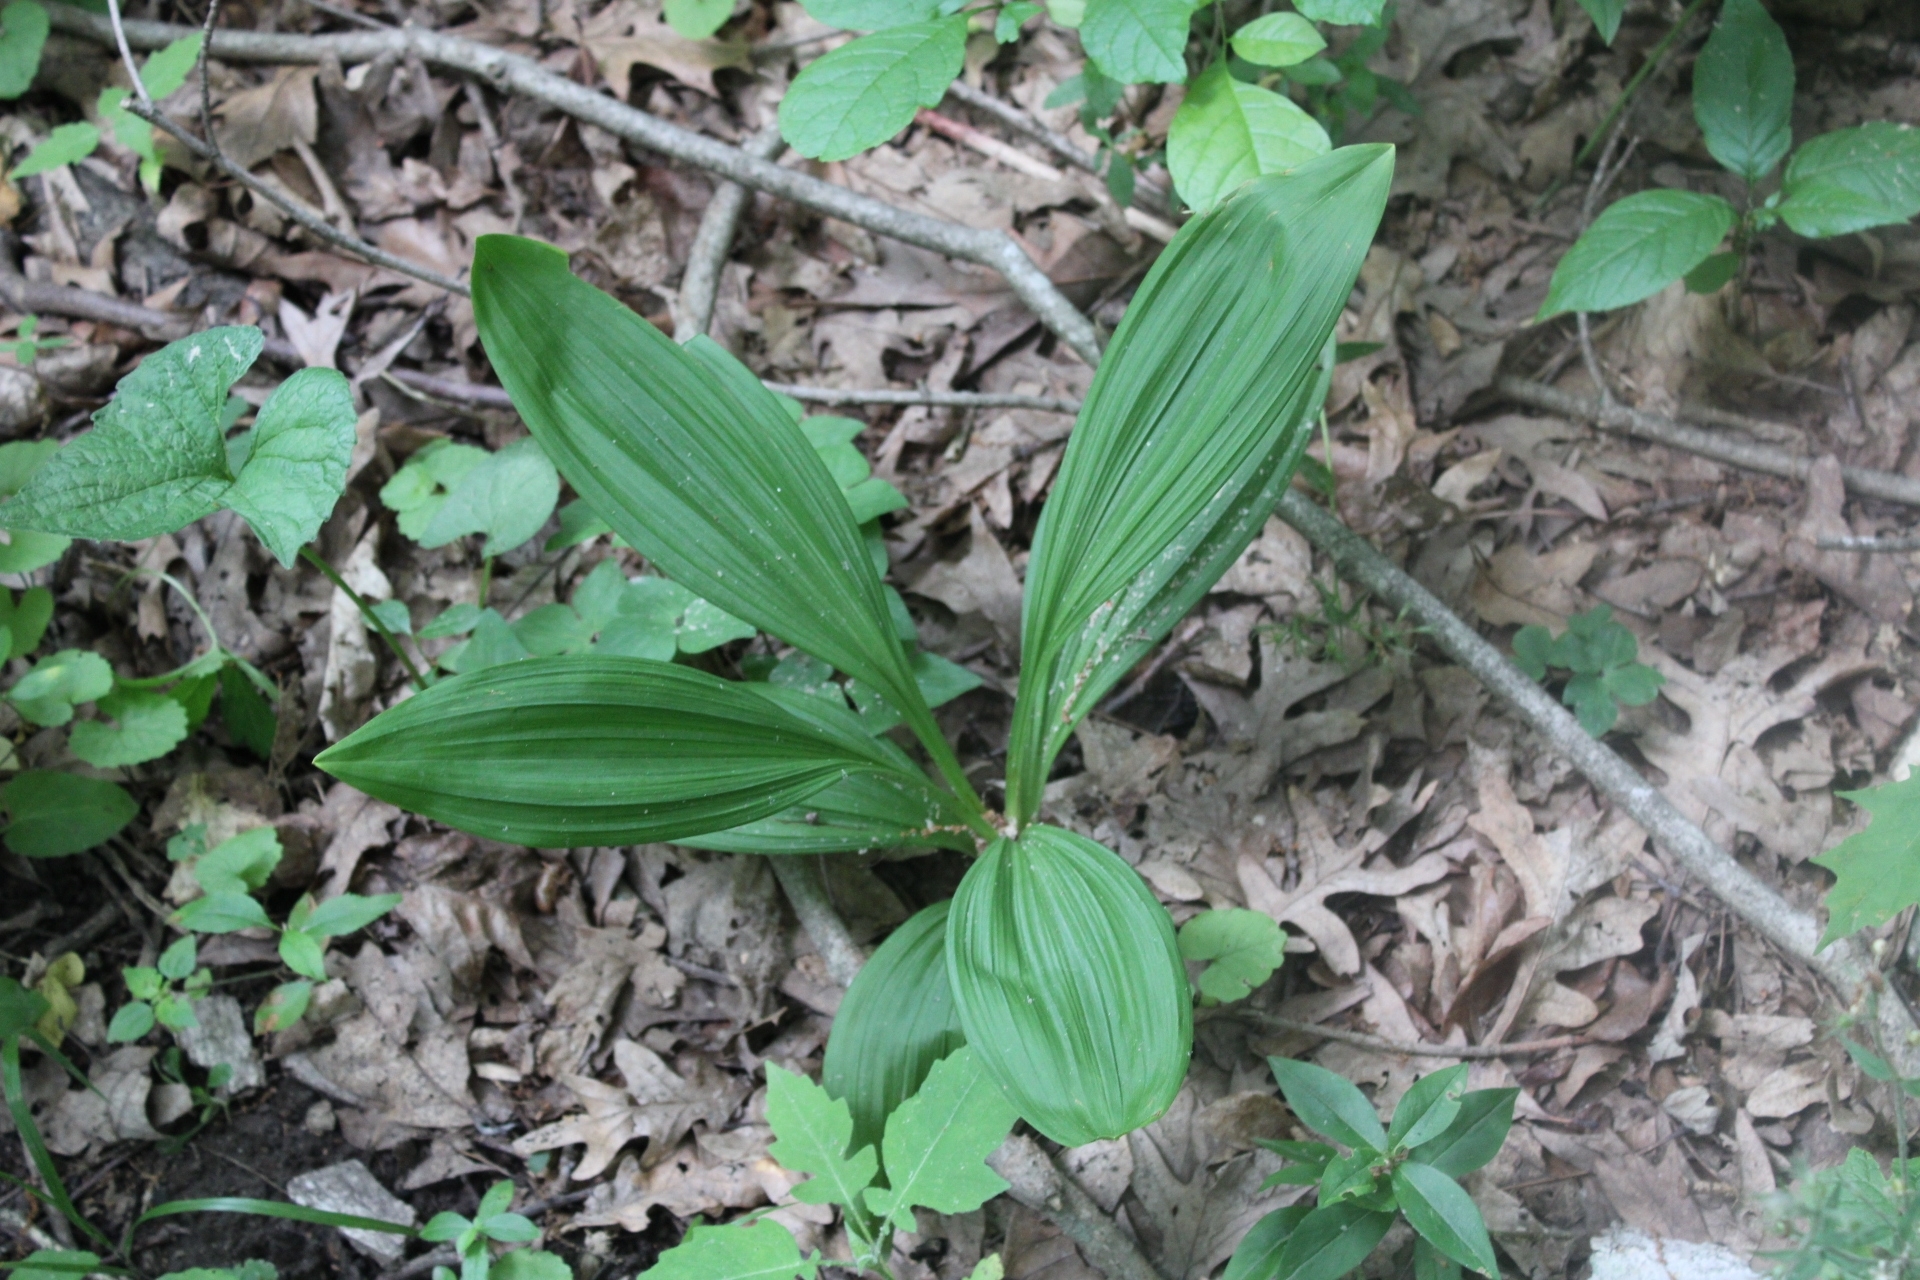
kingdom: Plantae
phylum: Tracheophyta
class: Liliopsida
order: Liliales
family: Melanthiaceae
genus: Veratrum
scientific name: Veratrum woodii
